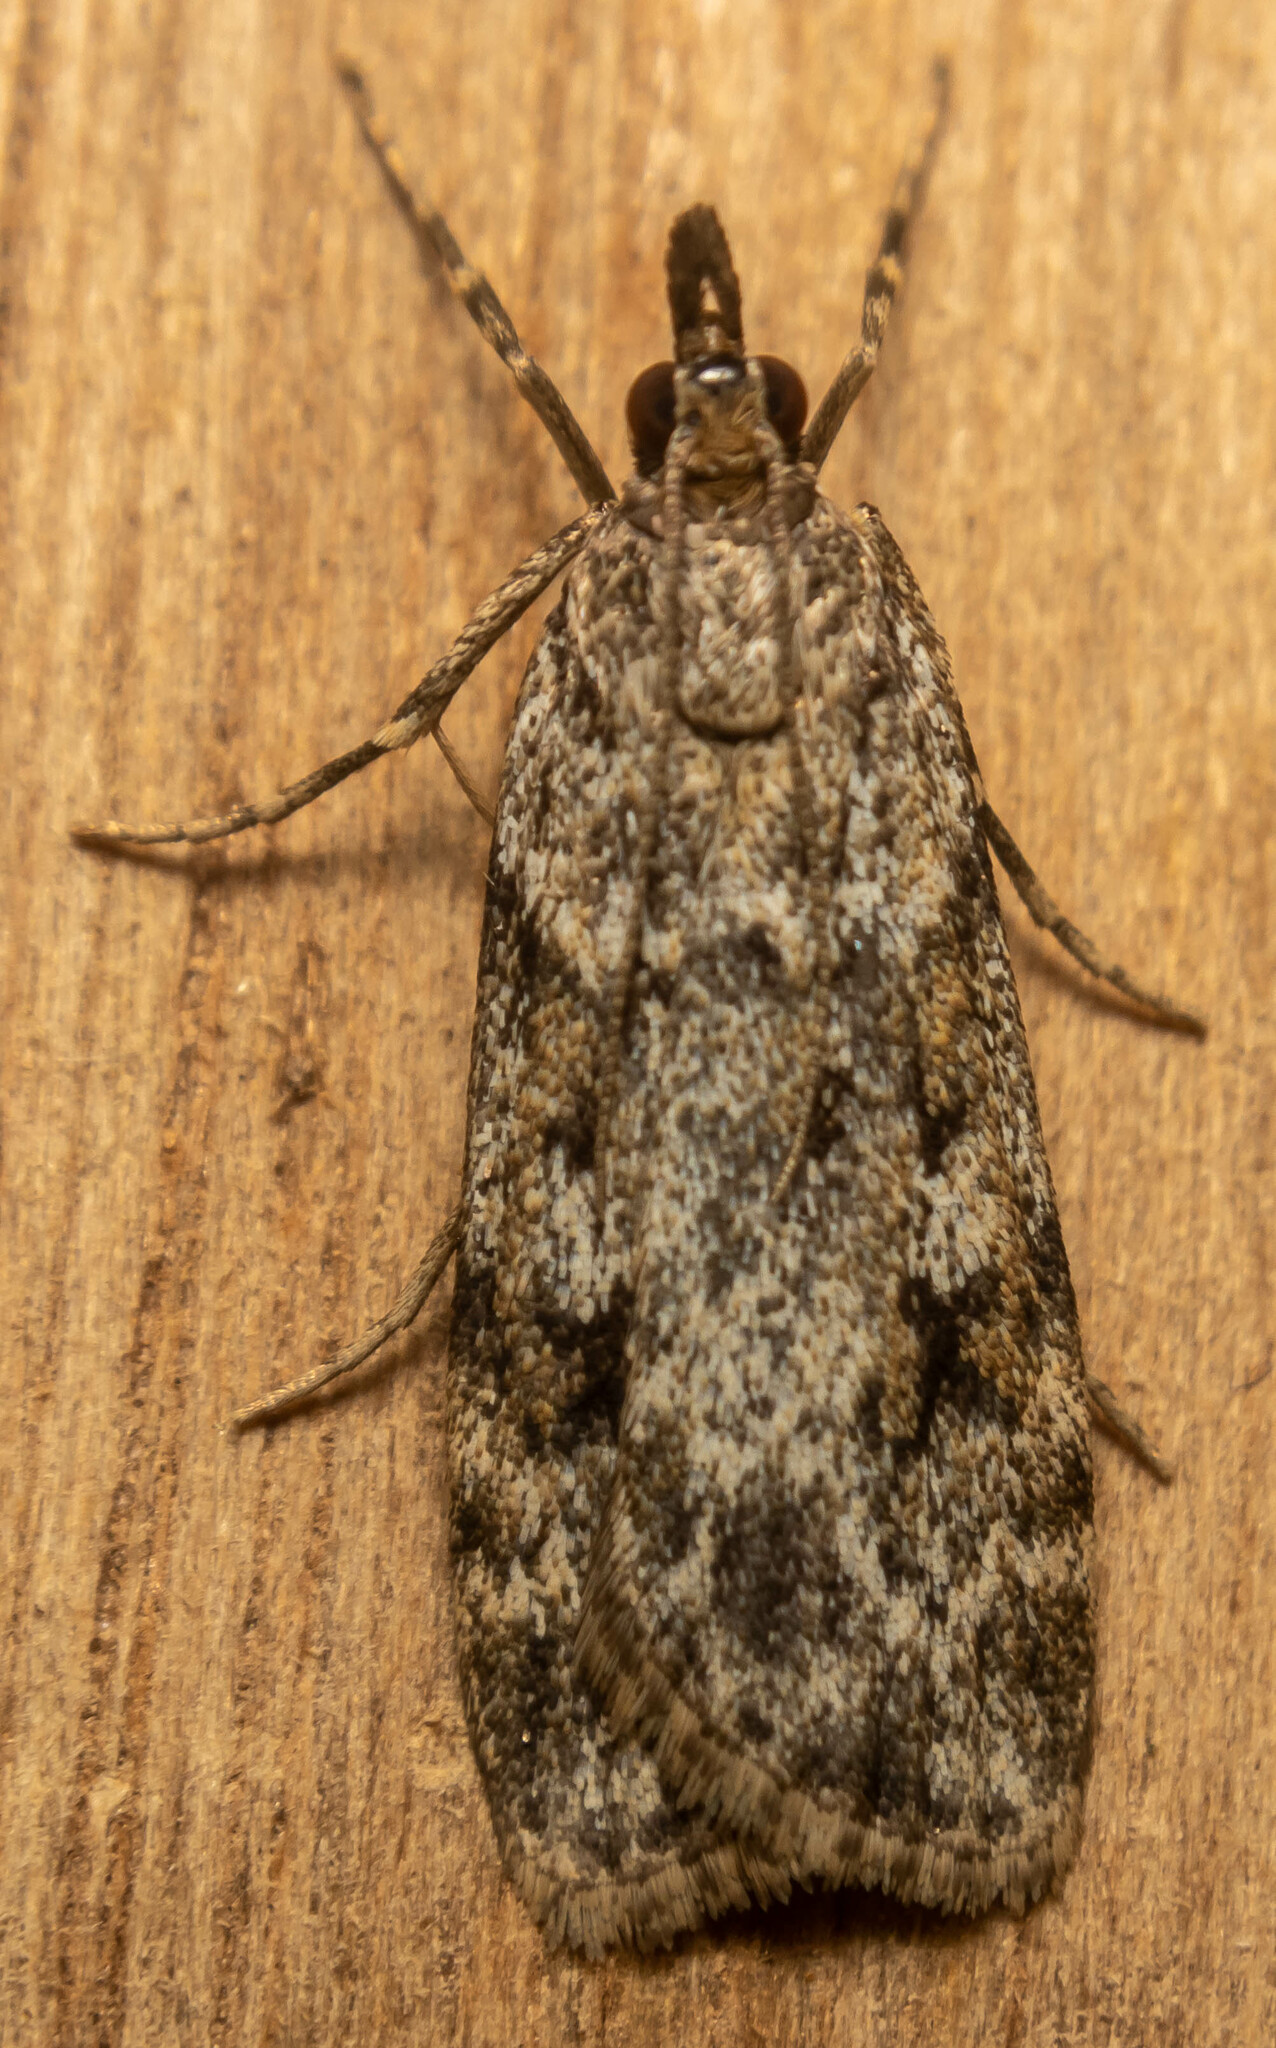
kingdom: Animalia
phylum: Arthropoda
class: Insecta
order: Lepidoptera
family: Crambidae
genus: Scoparia
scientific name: Scoparia ambigualis
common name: Common grey
